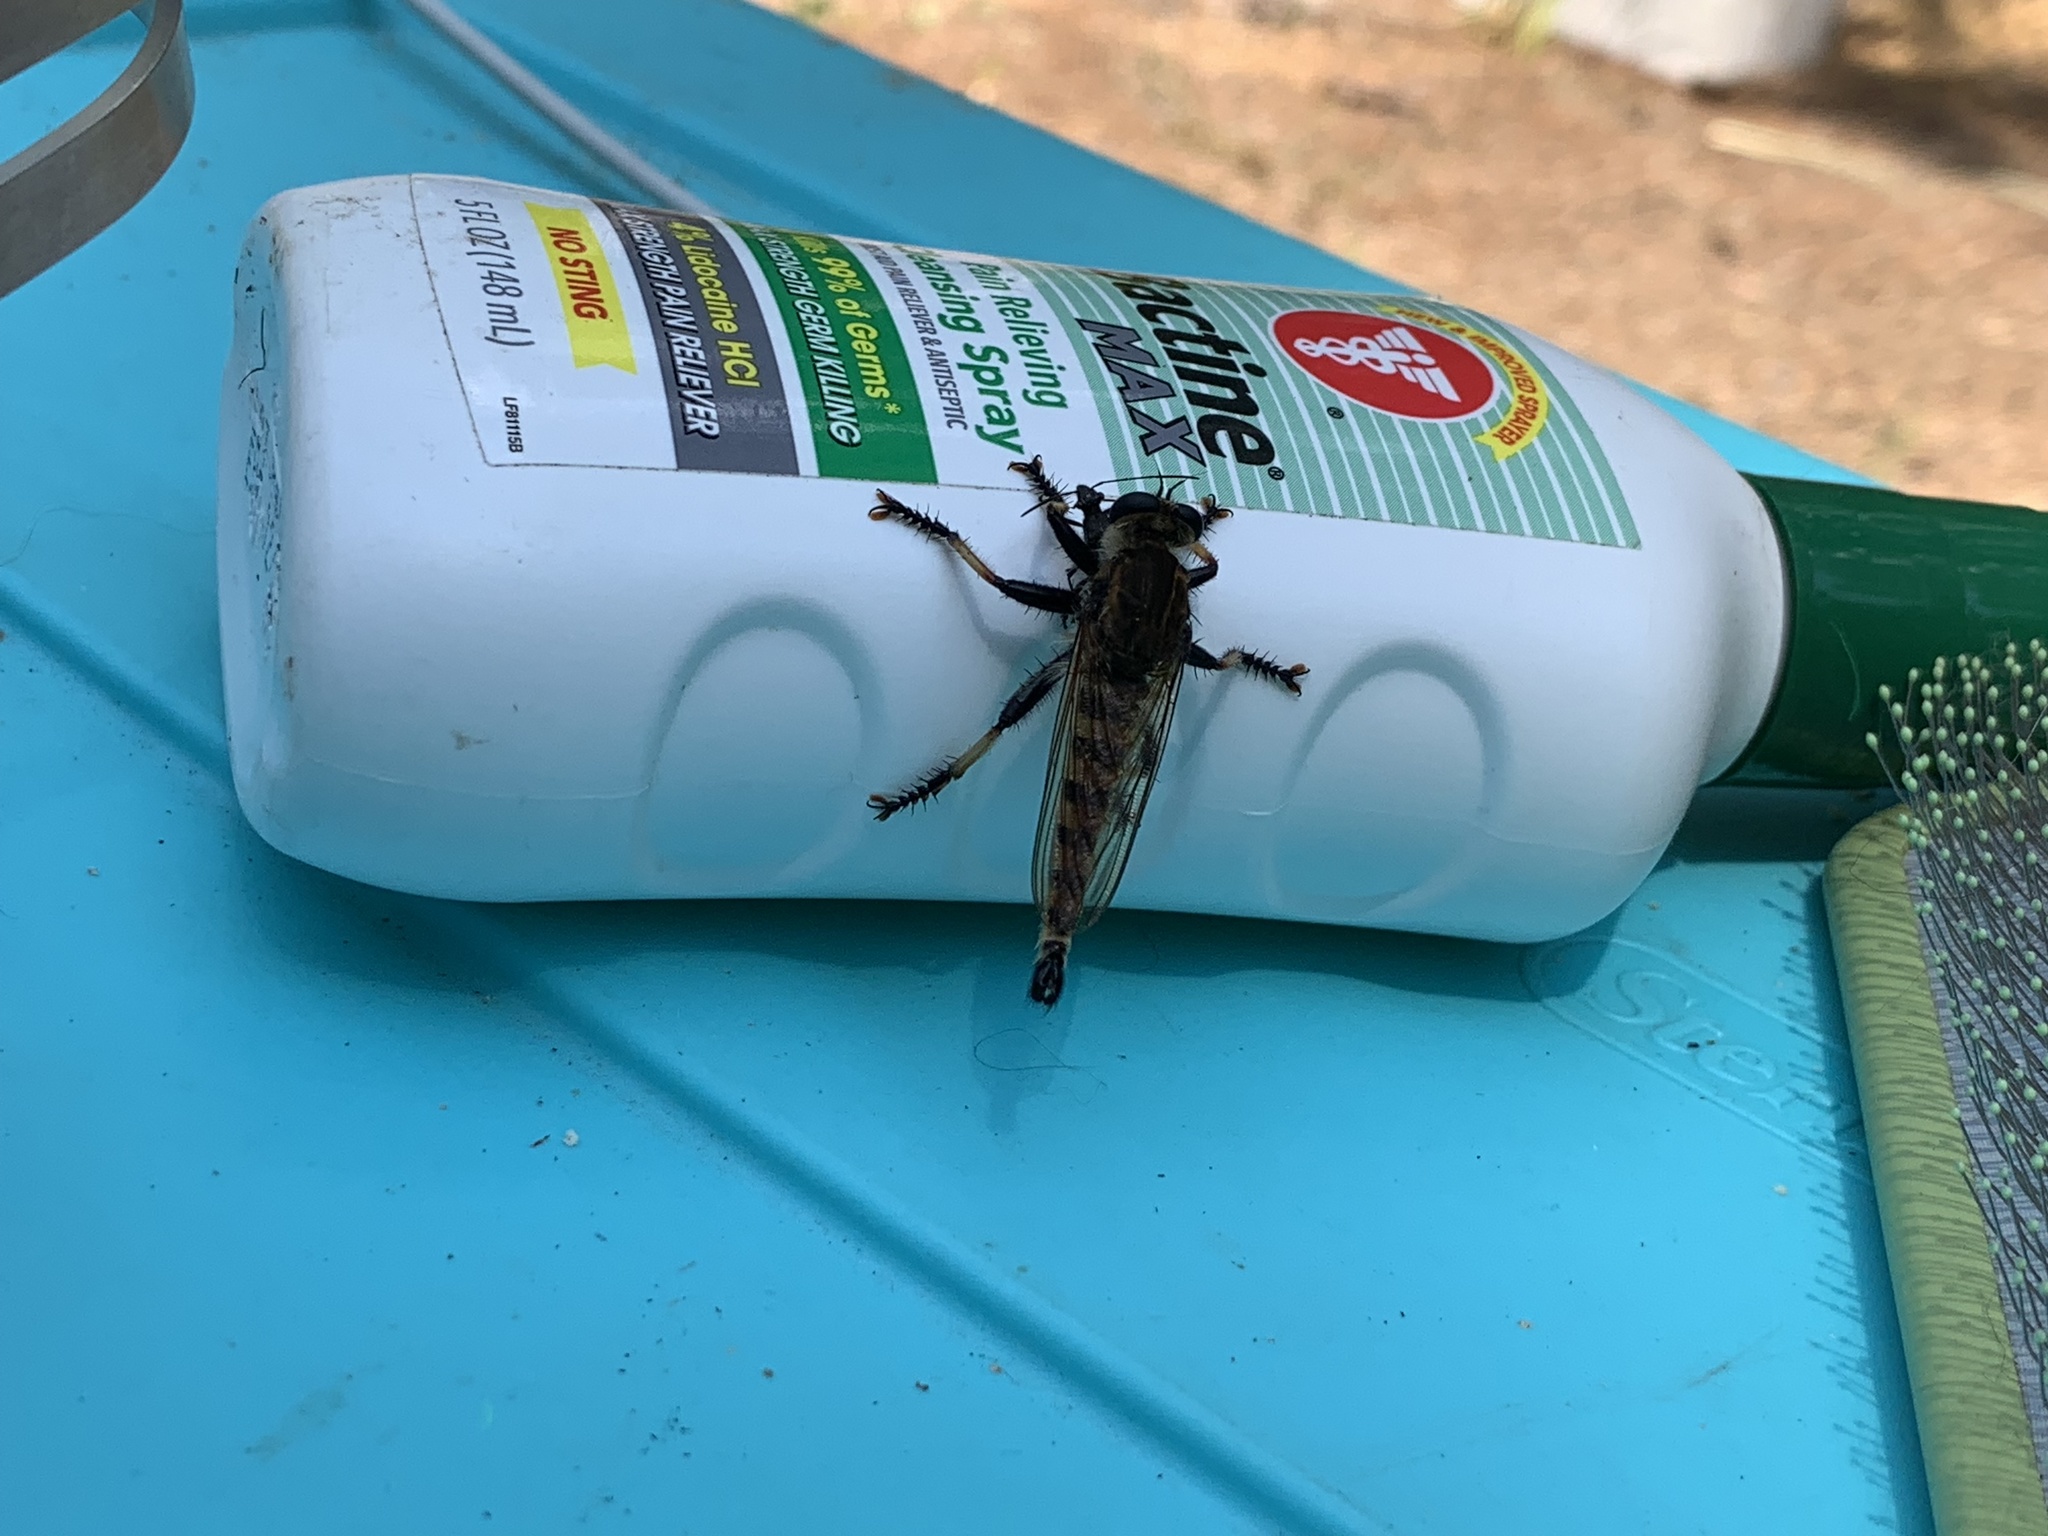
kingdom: Animalia
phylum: Arthropoda
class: Insecta
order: Diptera
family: Asilidae
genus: Promachus
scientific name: Promachus rufipes
